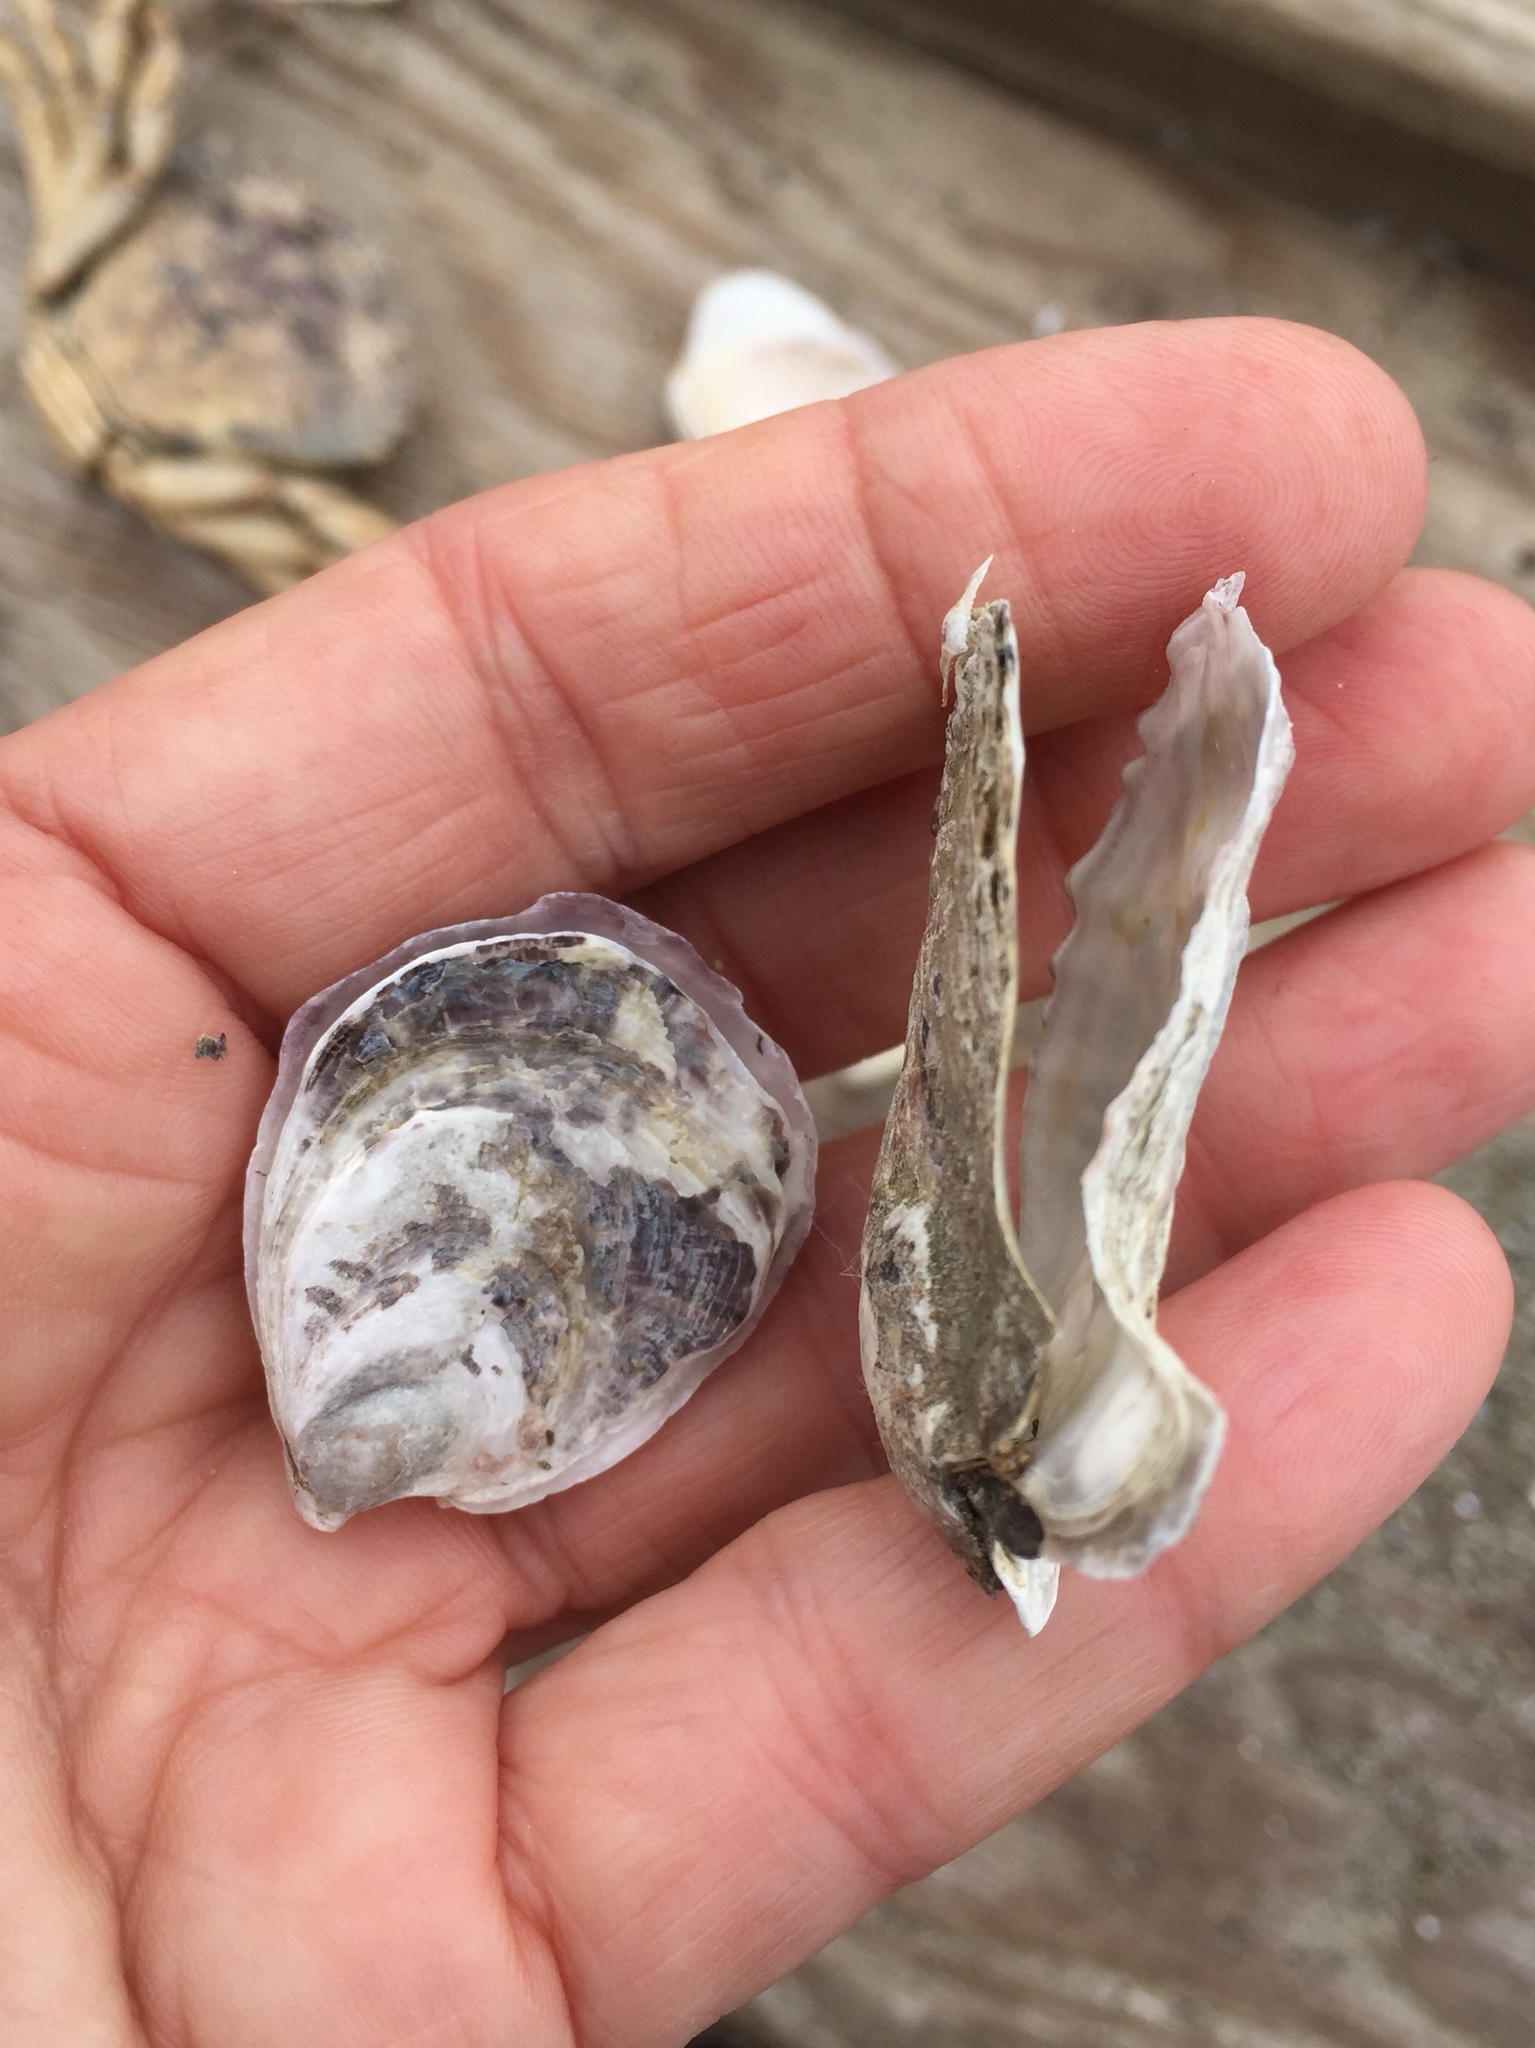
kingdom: Animalia
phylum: Mollusca
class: Bivalvia
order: Ostreida
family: Ostreidae
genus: Ostrea
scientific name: Ostrea lurida
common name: Olympia flat oyster
